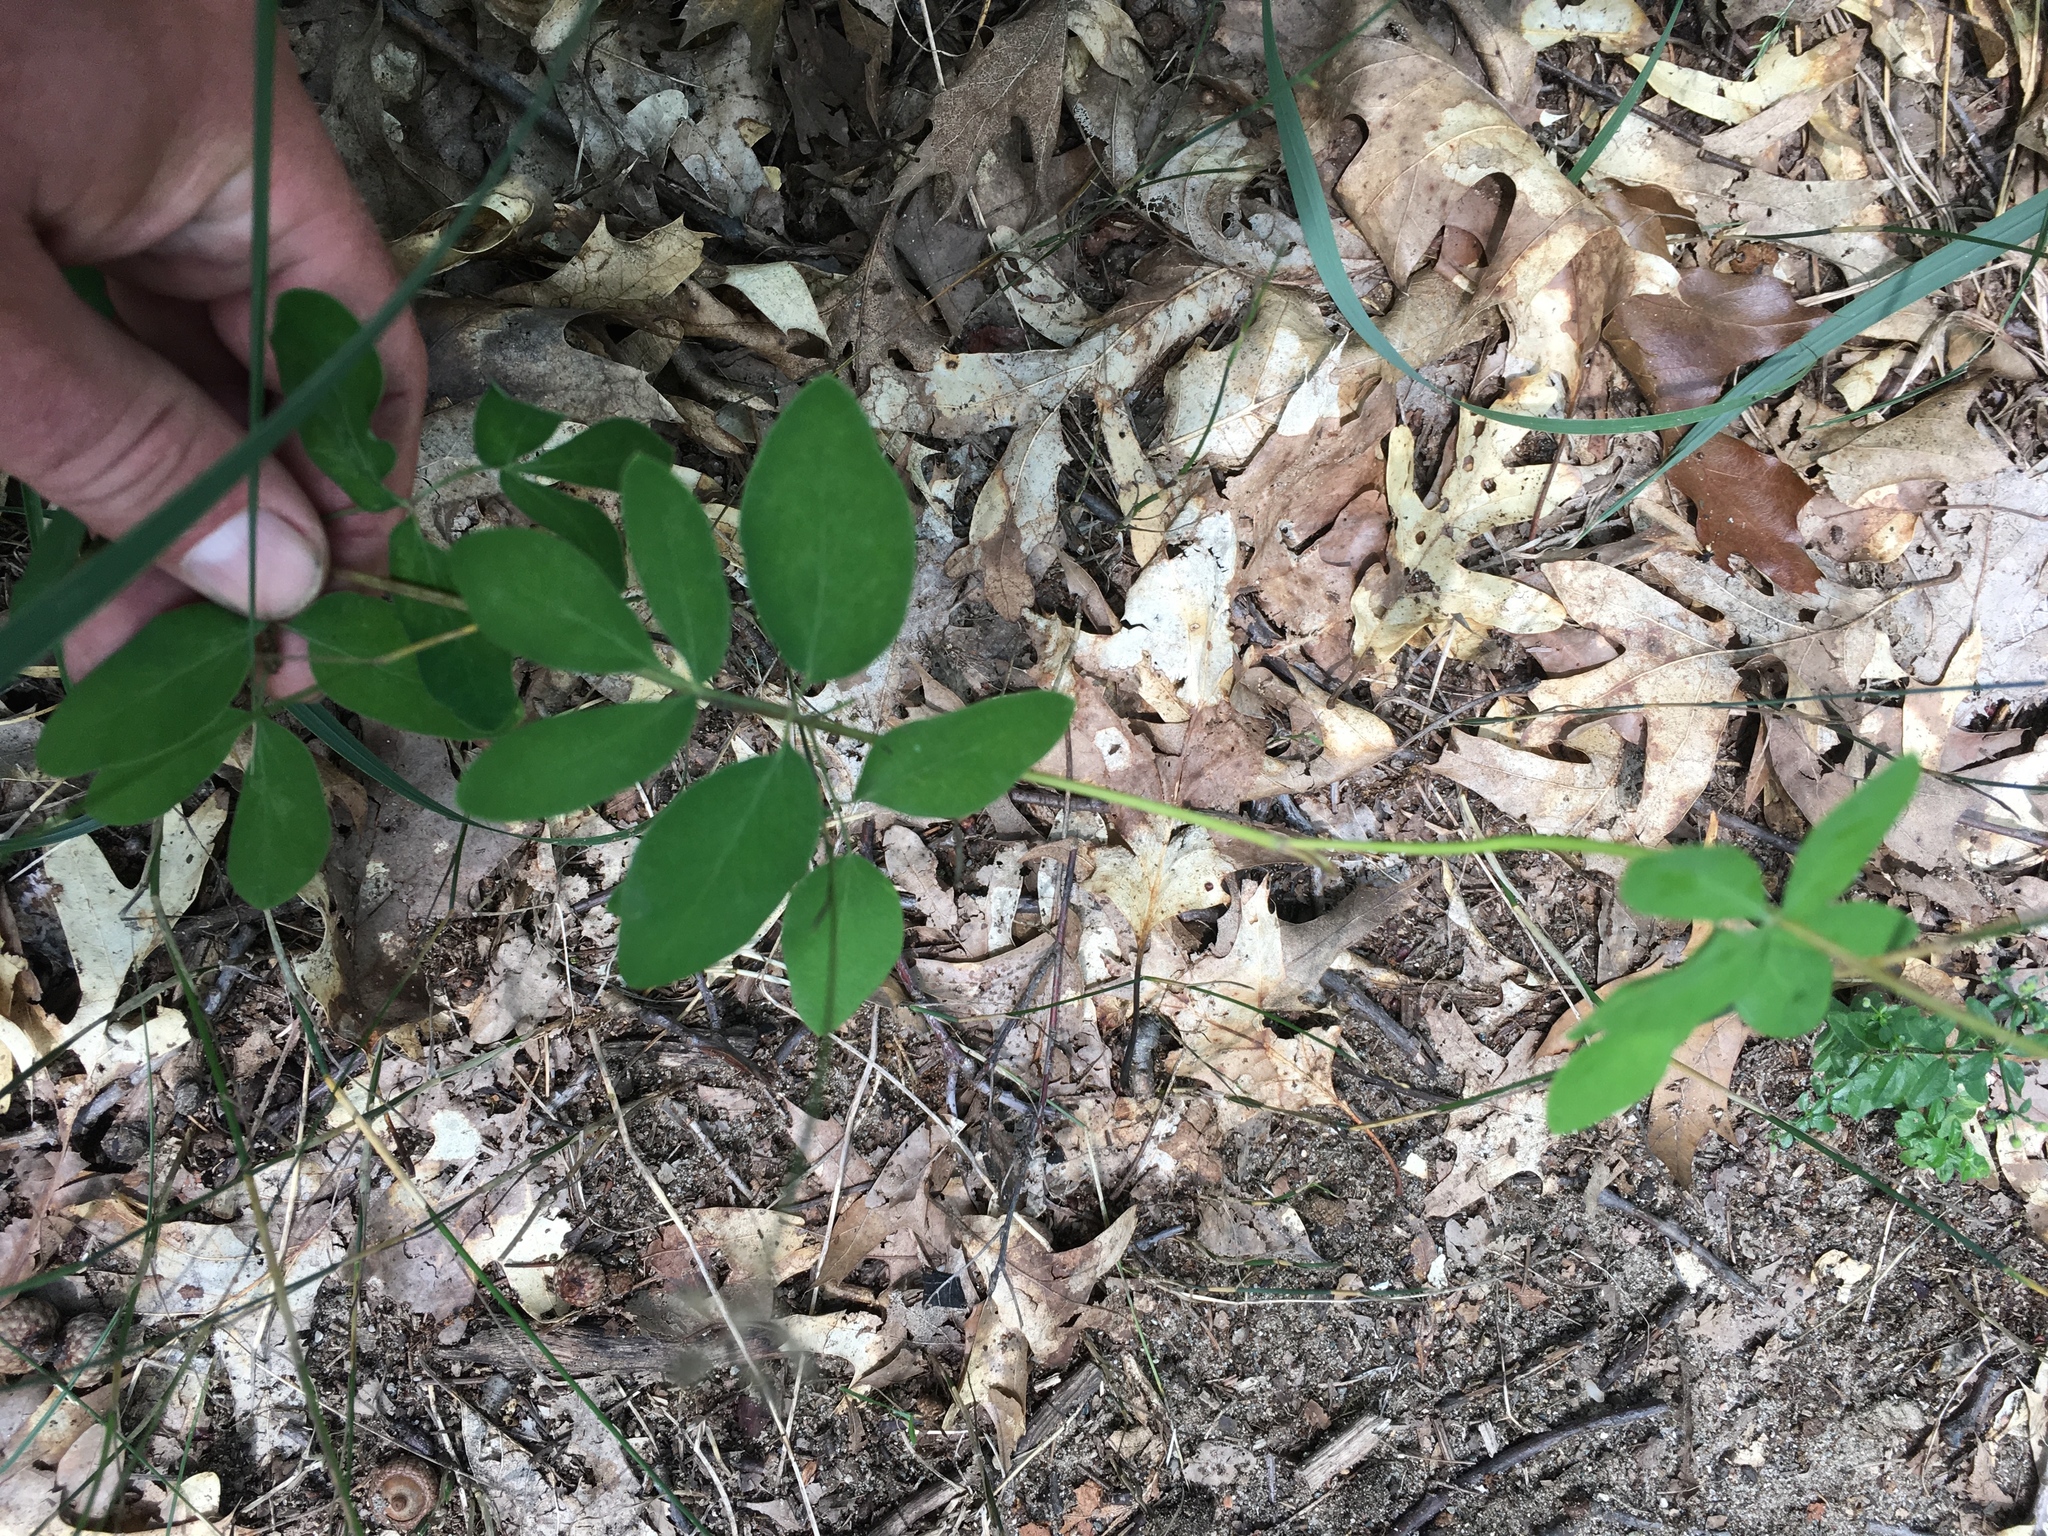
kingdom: Plantae
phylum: Tracheophyta
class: Magnoliopsida
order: Apiales
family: Apiaceae
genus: Taenidia
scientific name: Taenidia integerrima
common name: Golden alexander
